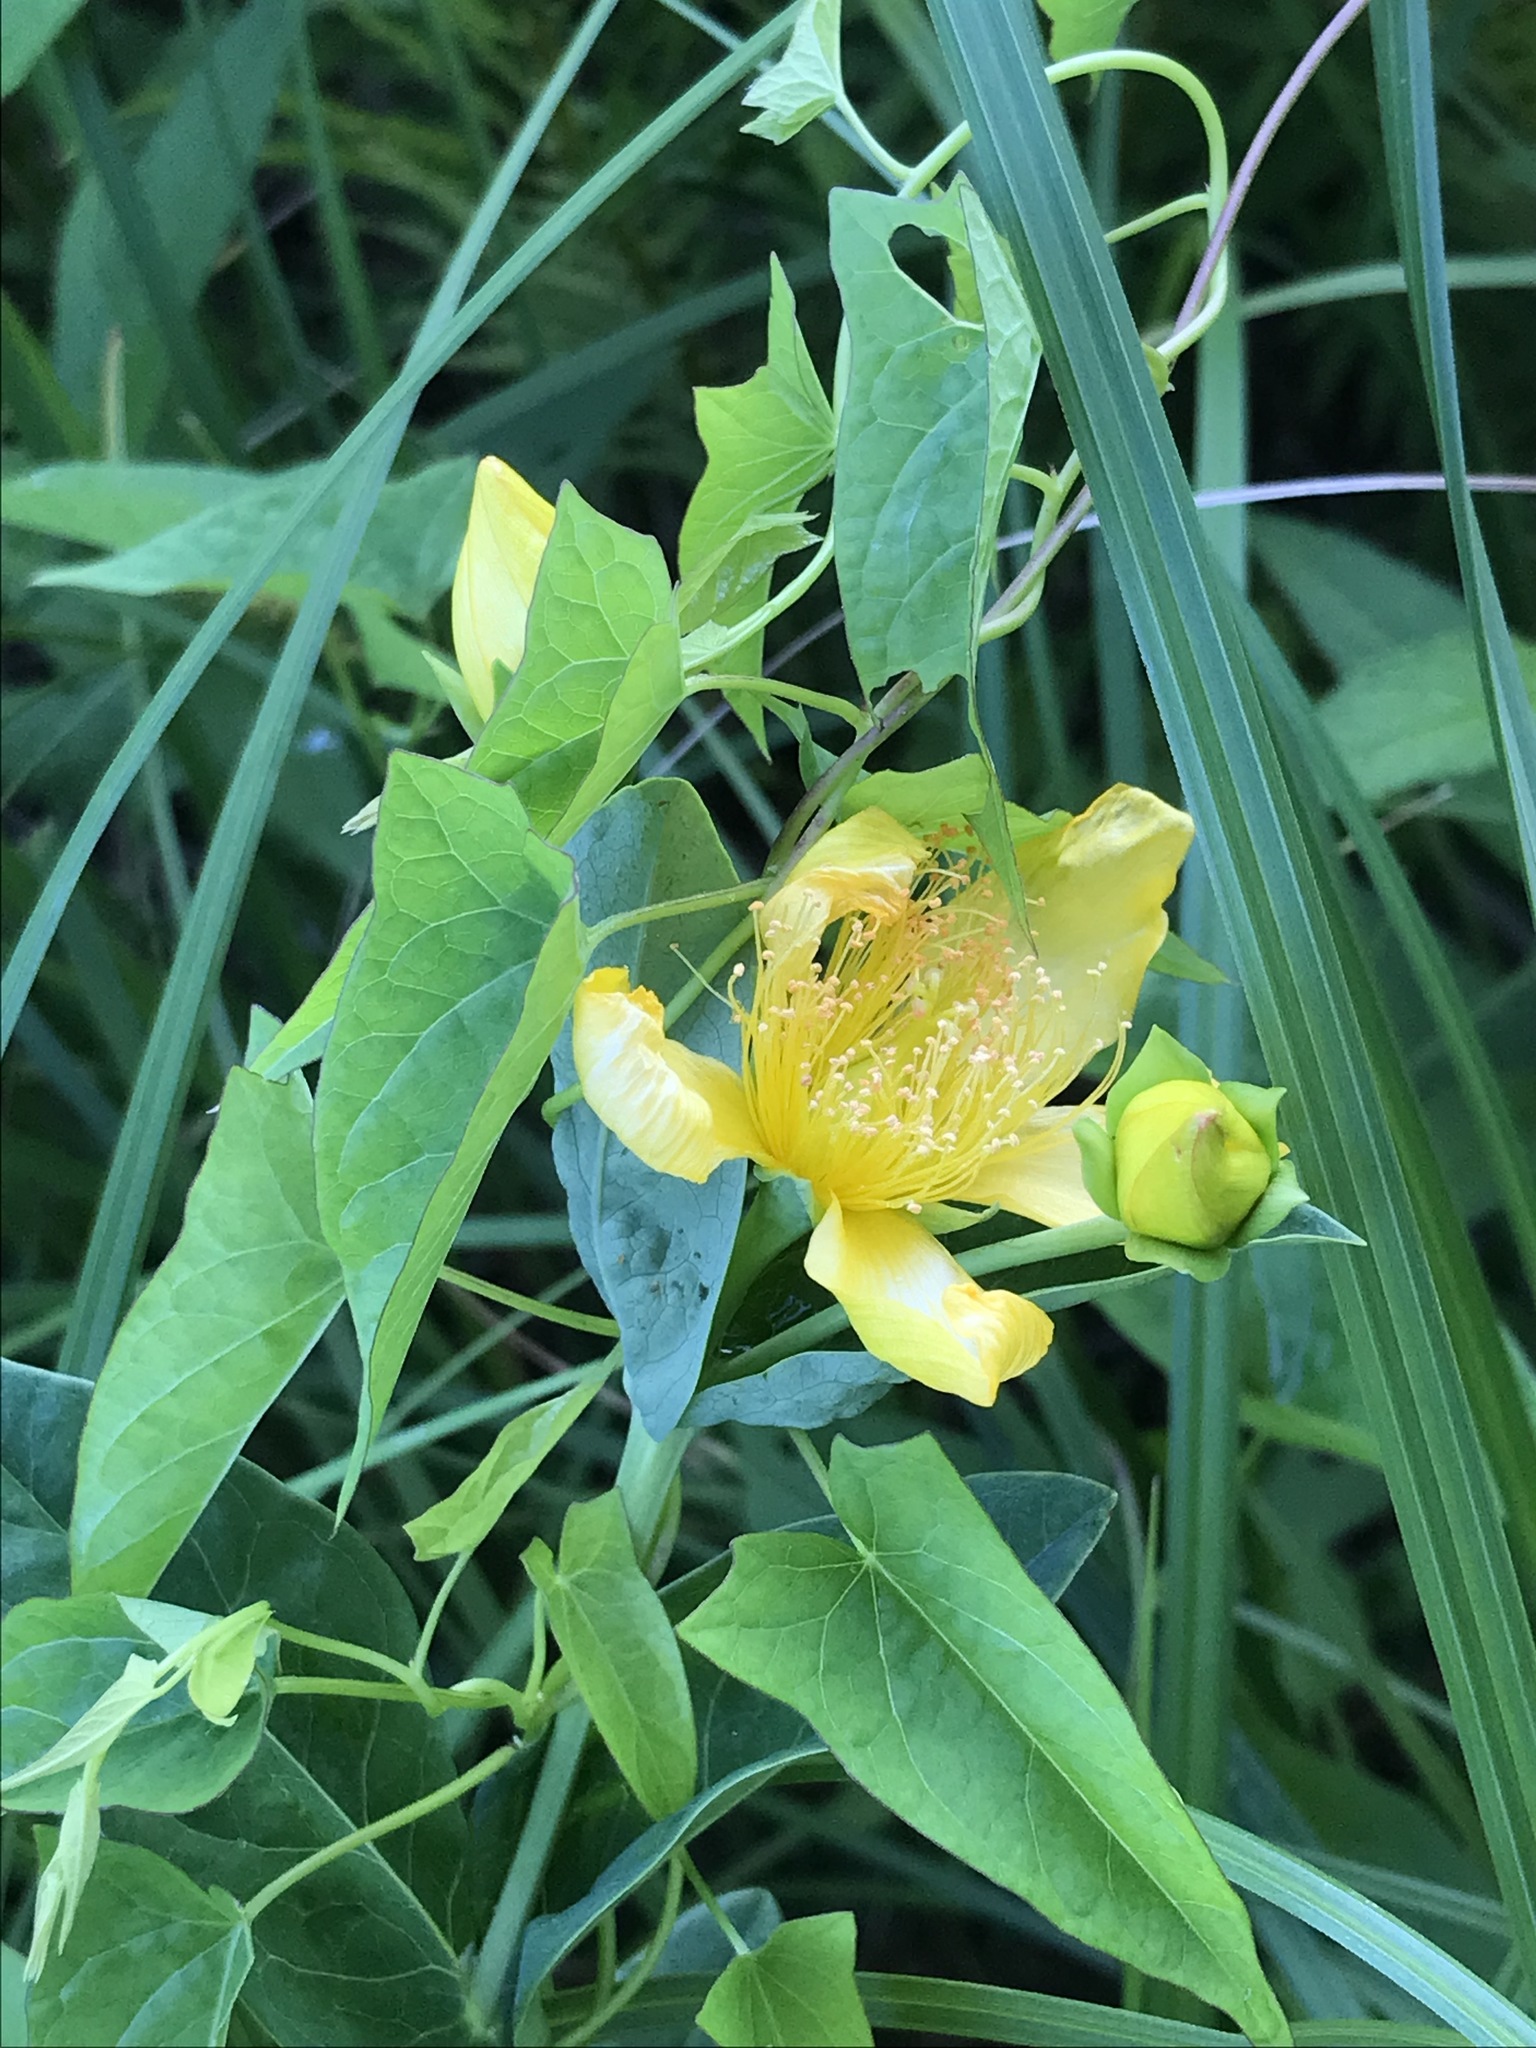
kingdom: Plantae
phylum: Tracheophyta
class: Magnoliopsida
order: Malpighiales
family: Hypericaceae
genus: Hypericum
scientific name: Hypericum ascyron
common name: Giant st. john's-wort
